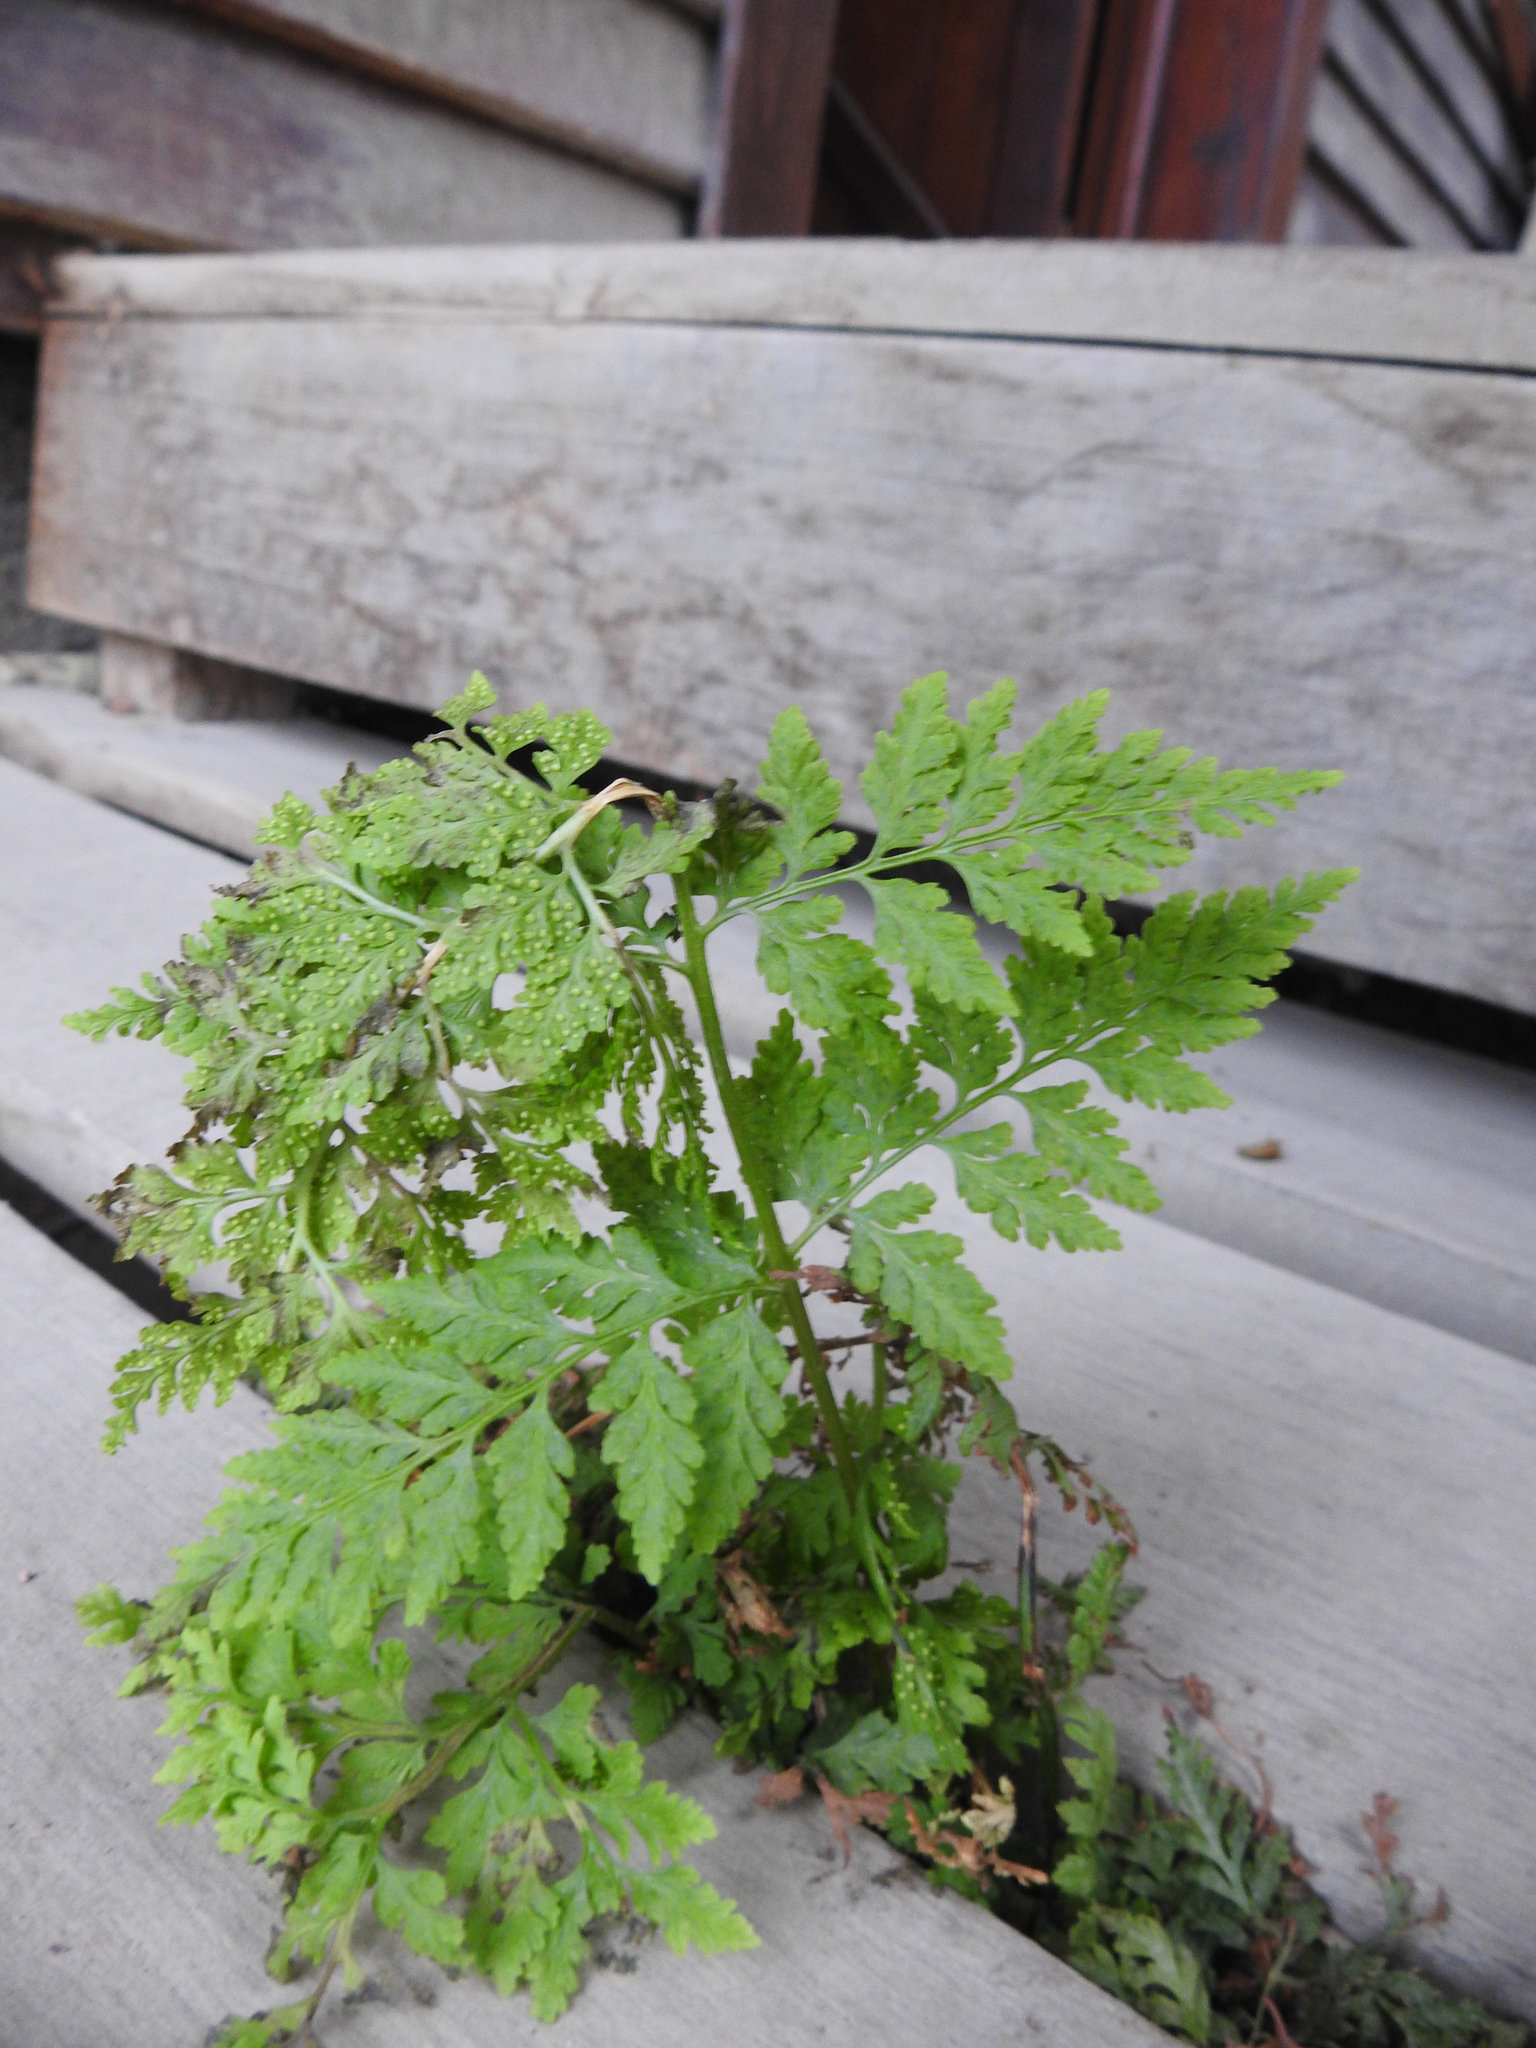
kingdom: Plantae
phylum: Tracheophyta
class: Polypodiopsida
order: Polypodiales
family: Cystopteridaceae
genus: Cystopteris
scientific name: Cystopteris fragilis
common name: Brittle bladder fern
